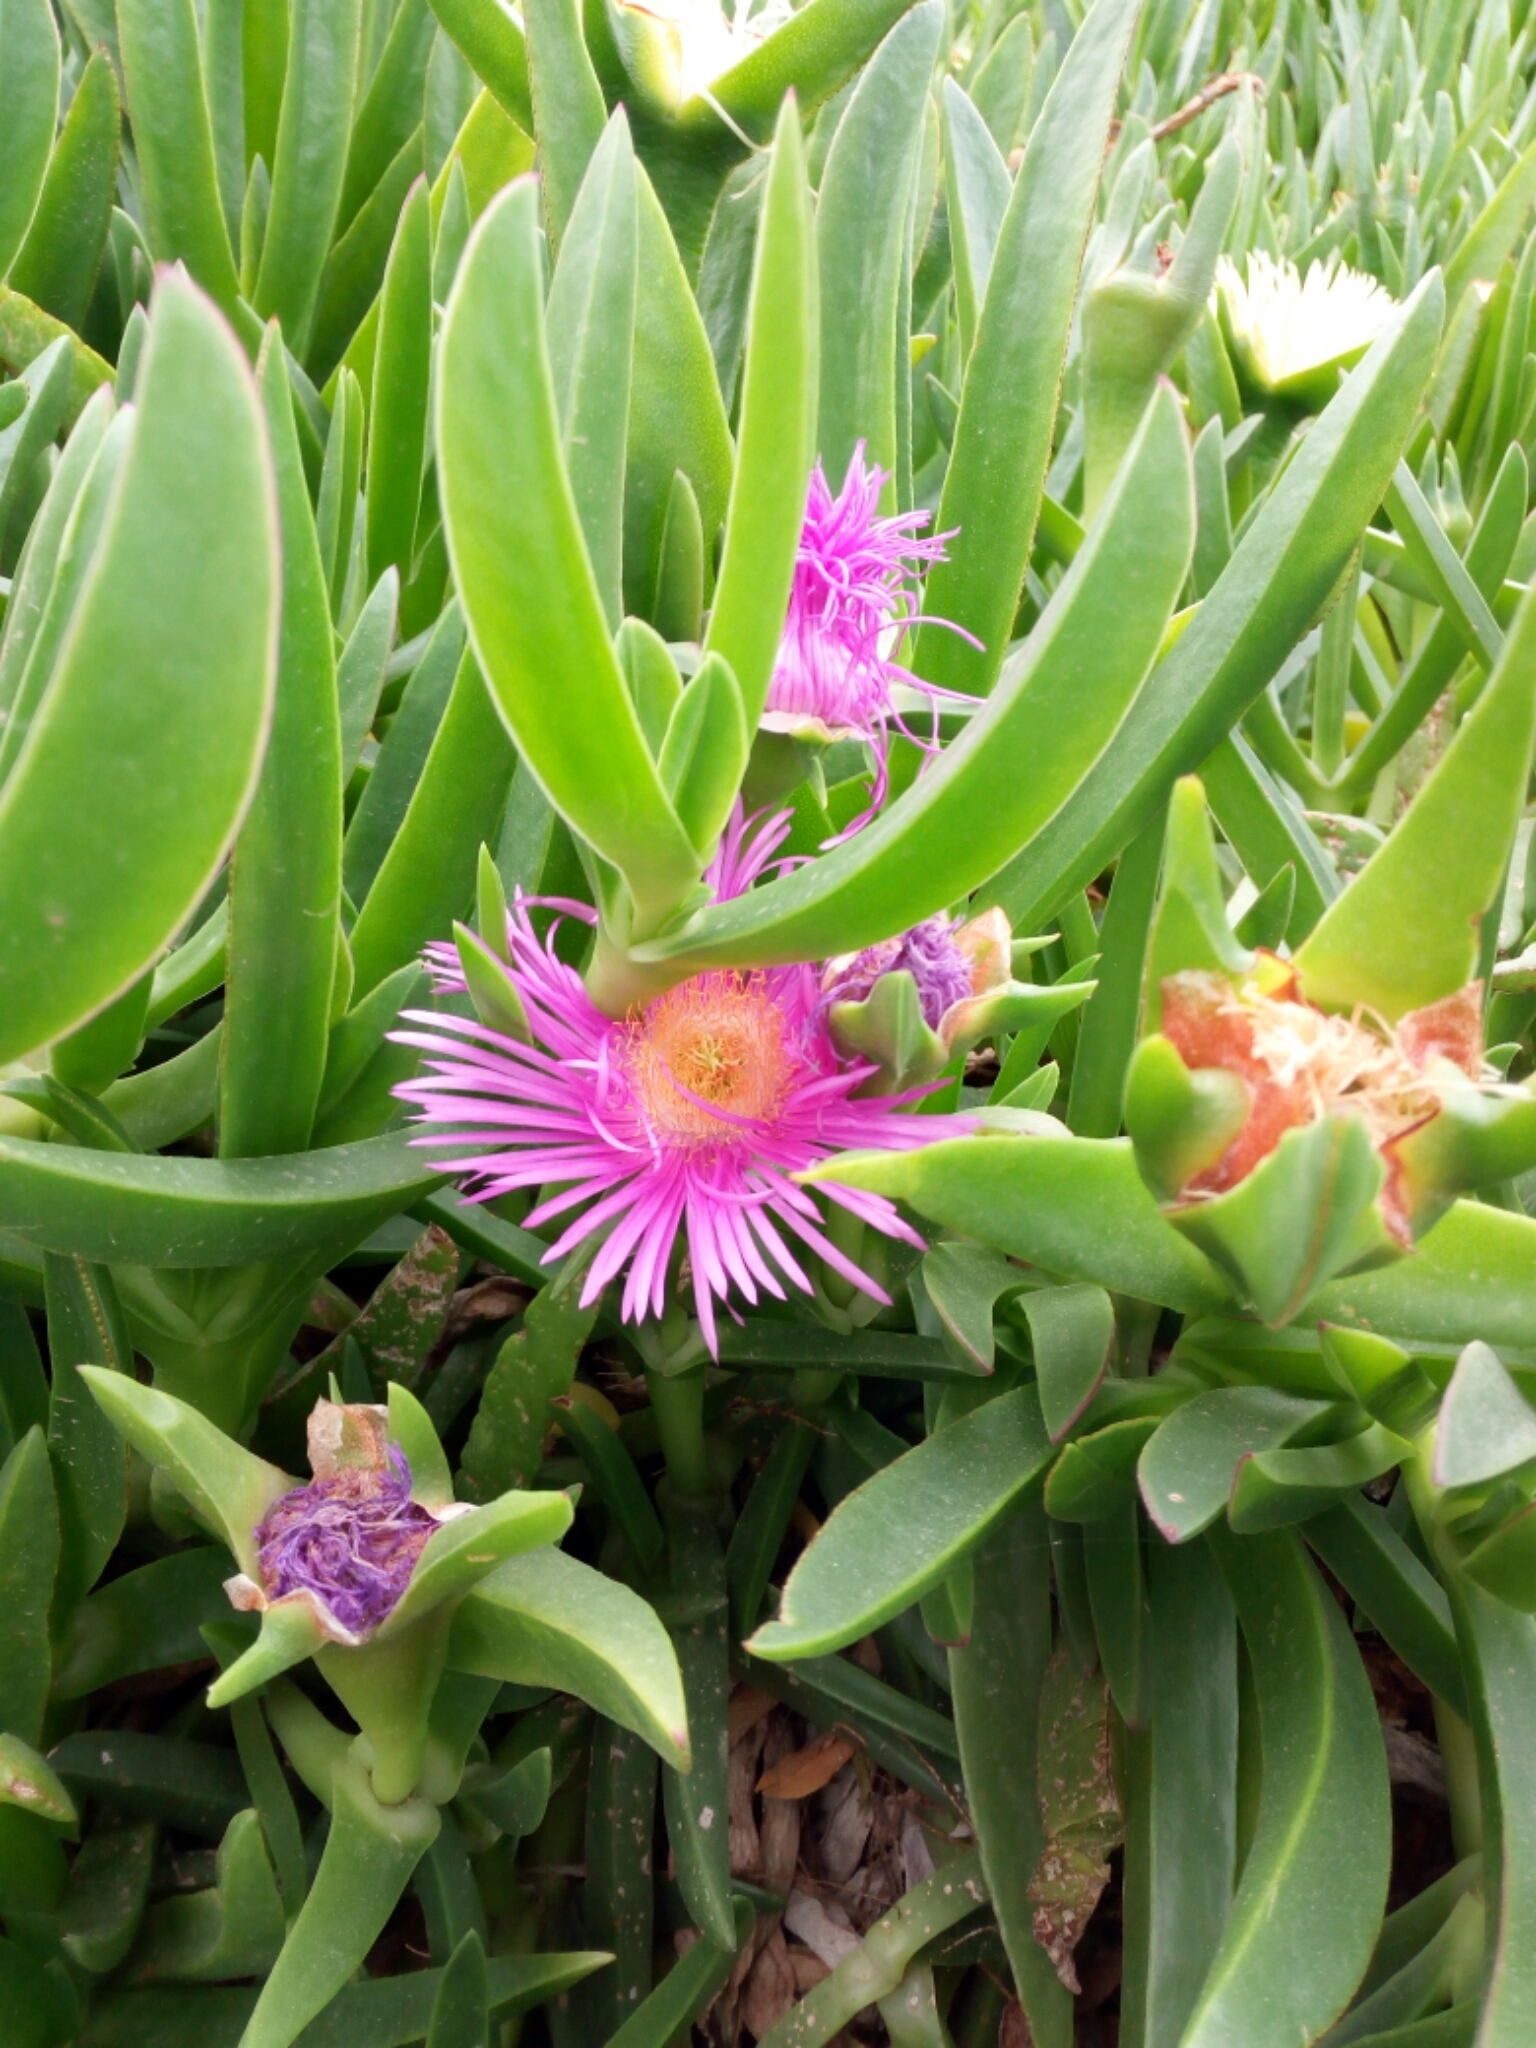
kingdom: Plantae
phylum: Tracheophyta
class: Magnoliopsida
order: Caryophyllales
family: Aizoaceae
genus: Carpobrotus
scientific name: Carpobrotus edulis
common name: Hottentot-fig
